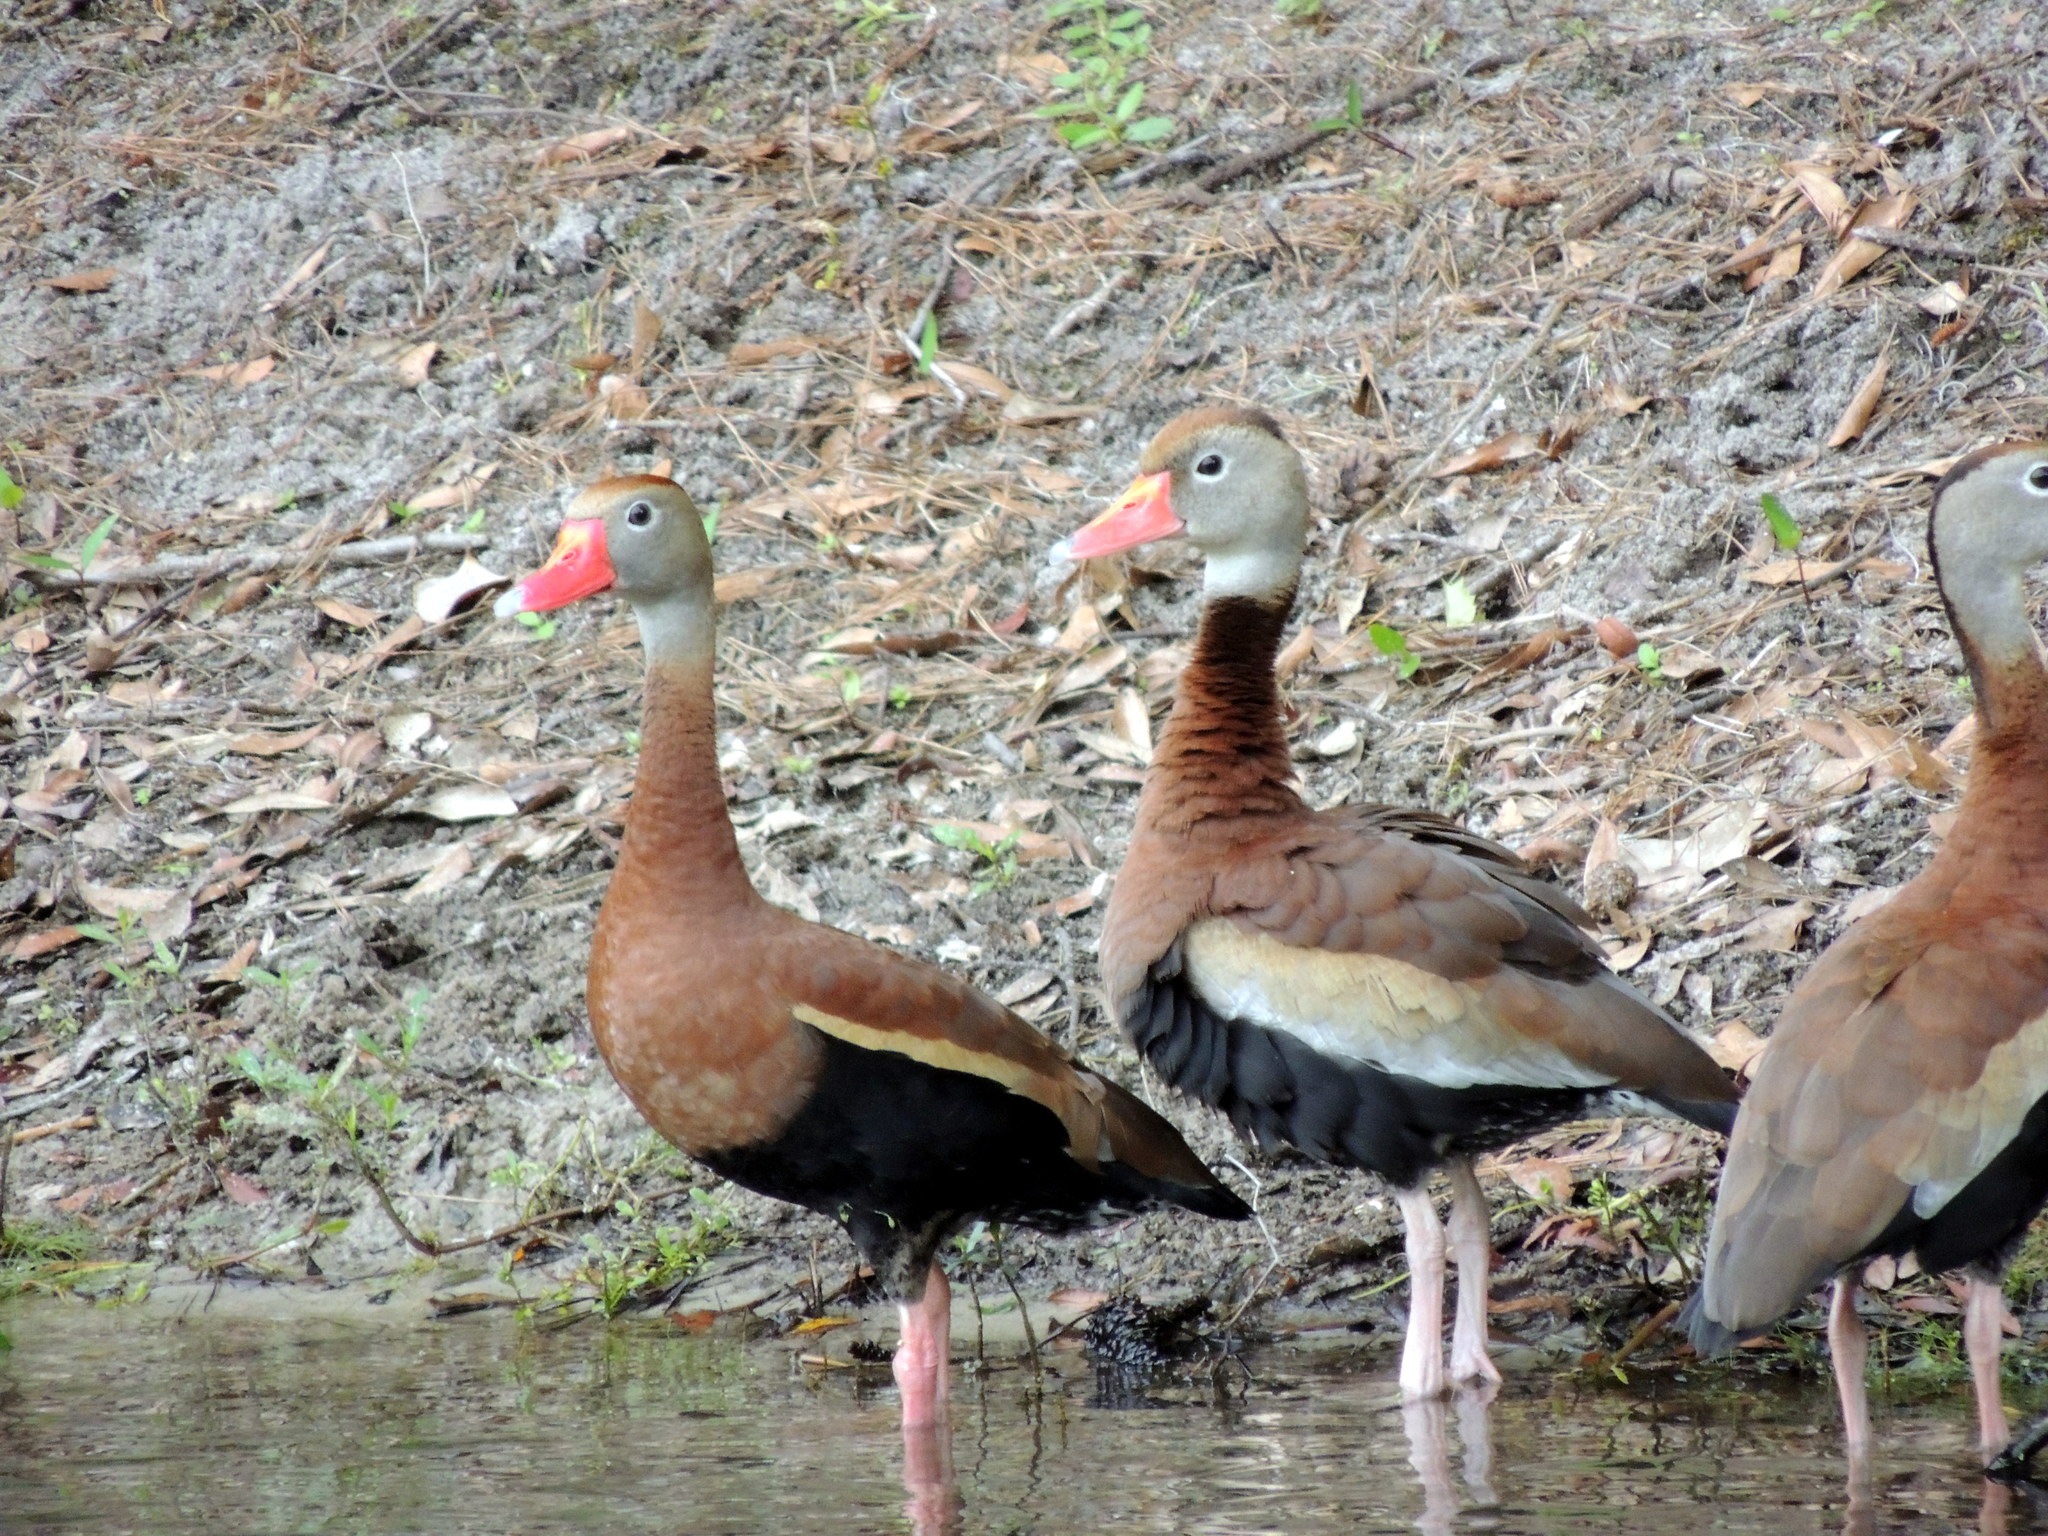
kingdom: Animalia
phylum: Chordata
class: Aves
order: Anseriformes
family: Anatidae
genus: Dendrocygna
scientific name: Dendrocygna autumnalis
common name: Black-bellied whistling duck
